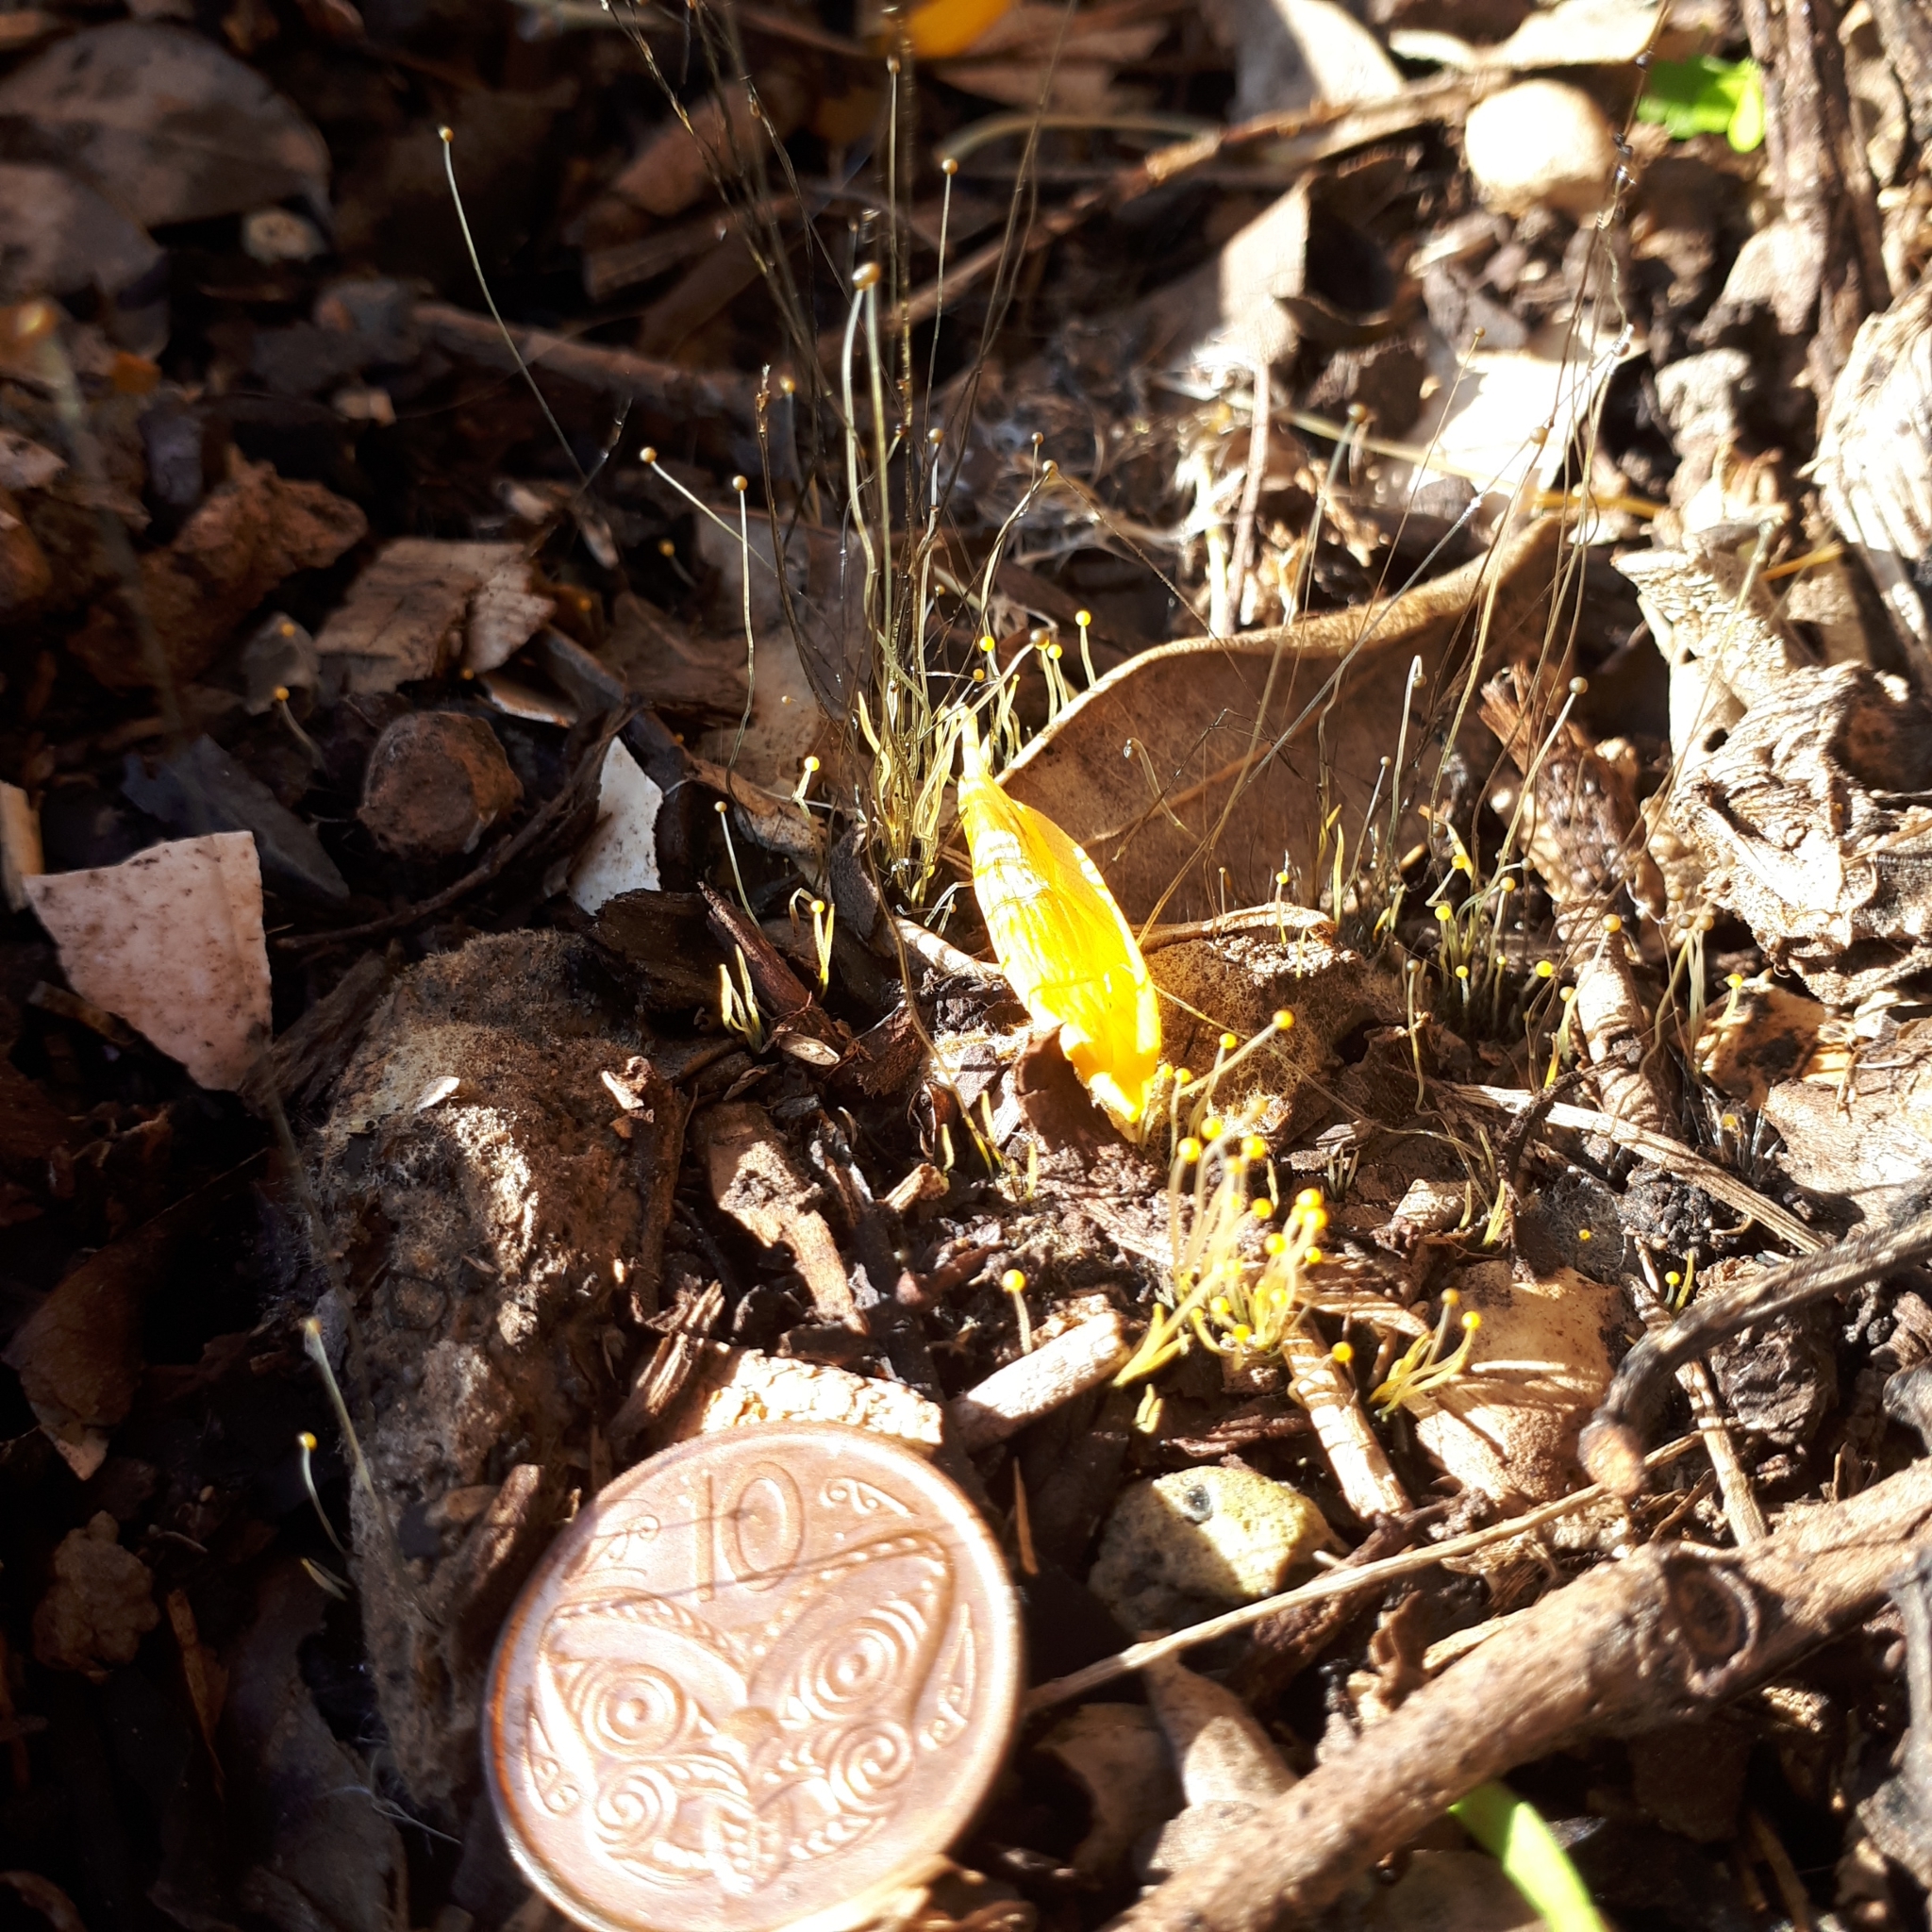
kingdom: Fungi
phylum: Mucoromycota
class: Mucoromycetes
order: Mucorales
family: Phycomycetaceae
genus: Phycomyces
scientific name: Phycomyces
